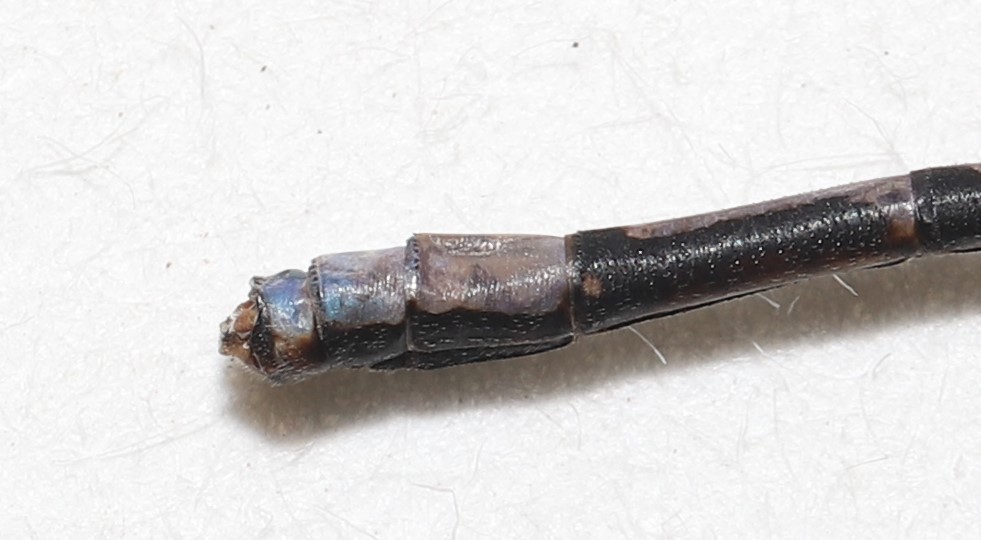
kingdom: Animalia
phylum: Arthropoda
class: Insecta
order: Odonata
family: Coenagrionidae
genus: Argia
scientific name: Argia fumipennis
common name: Variable dancer
